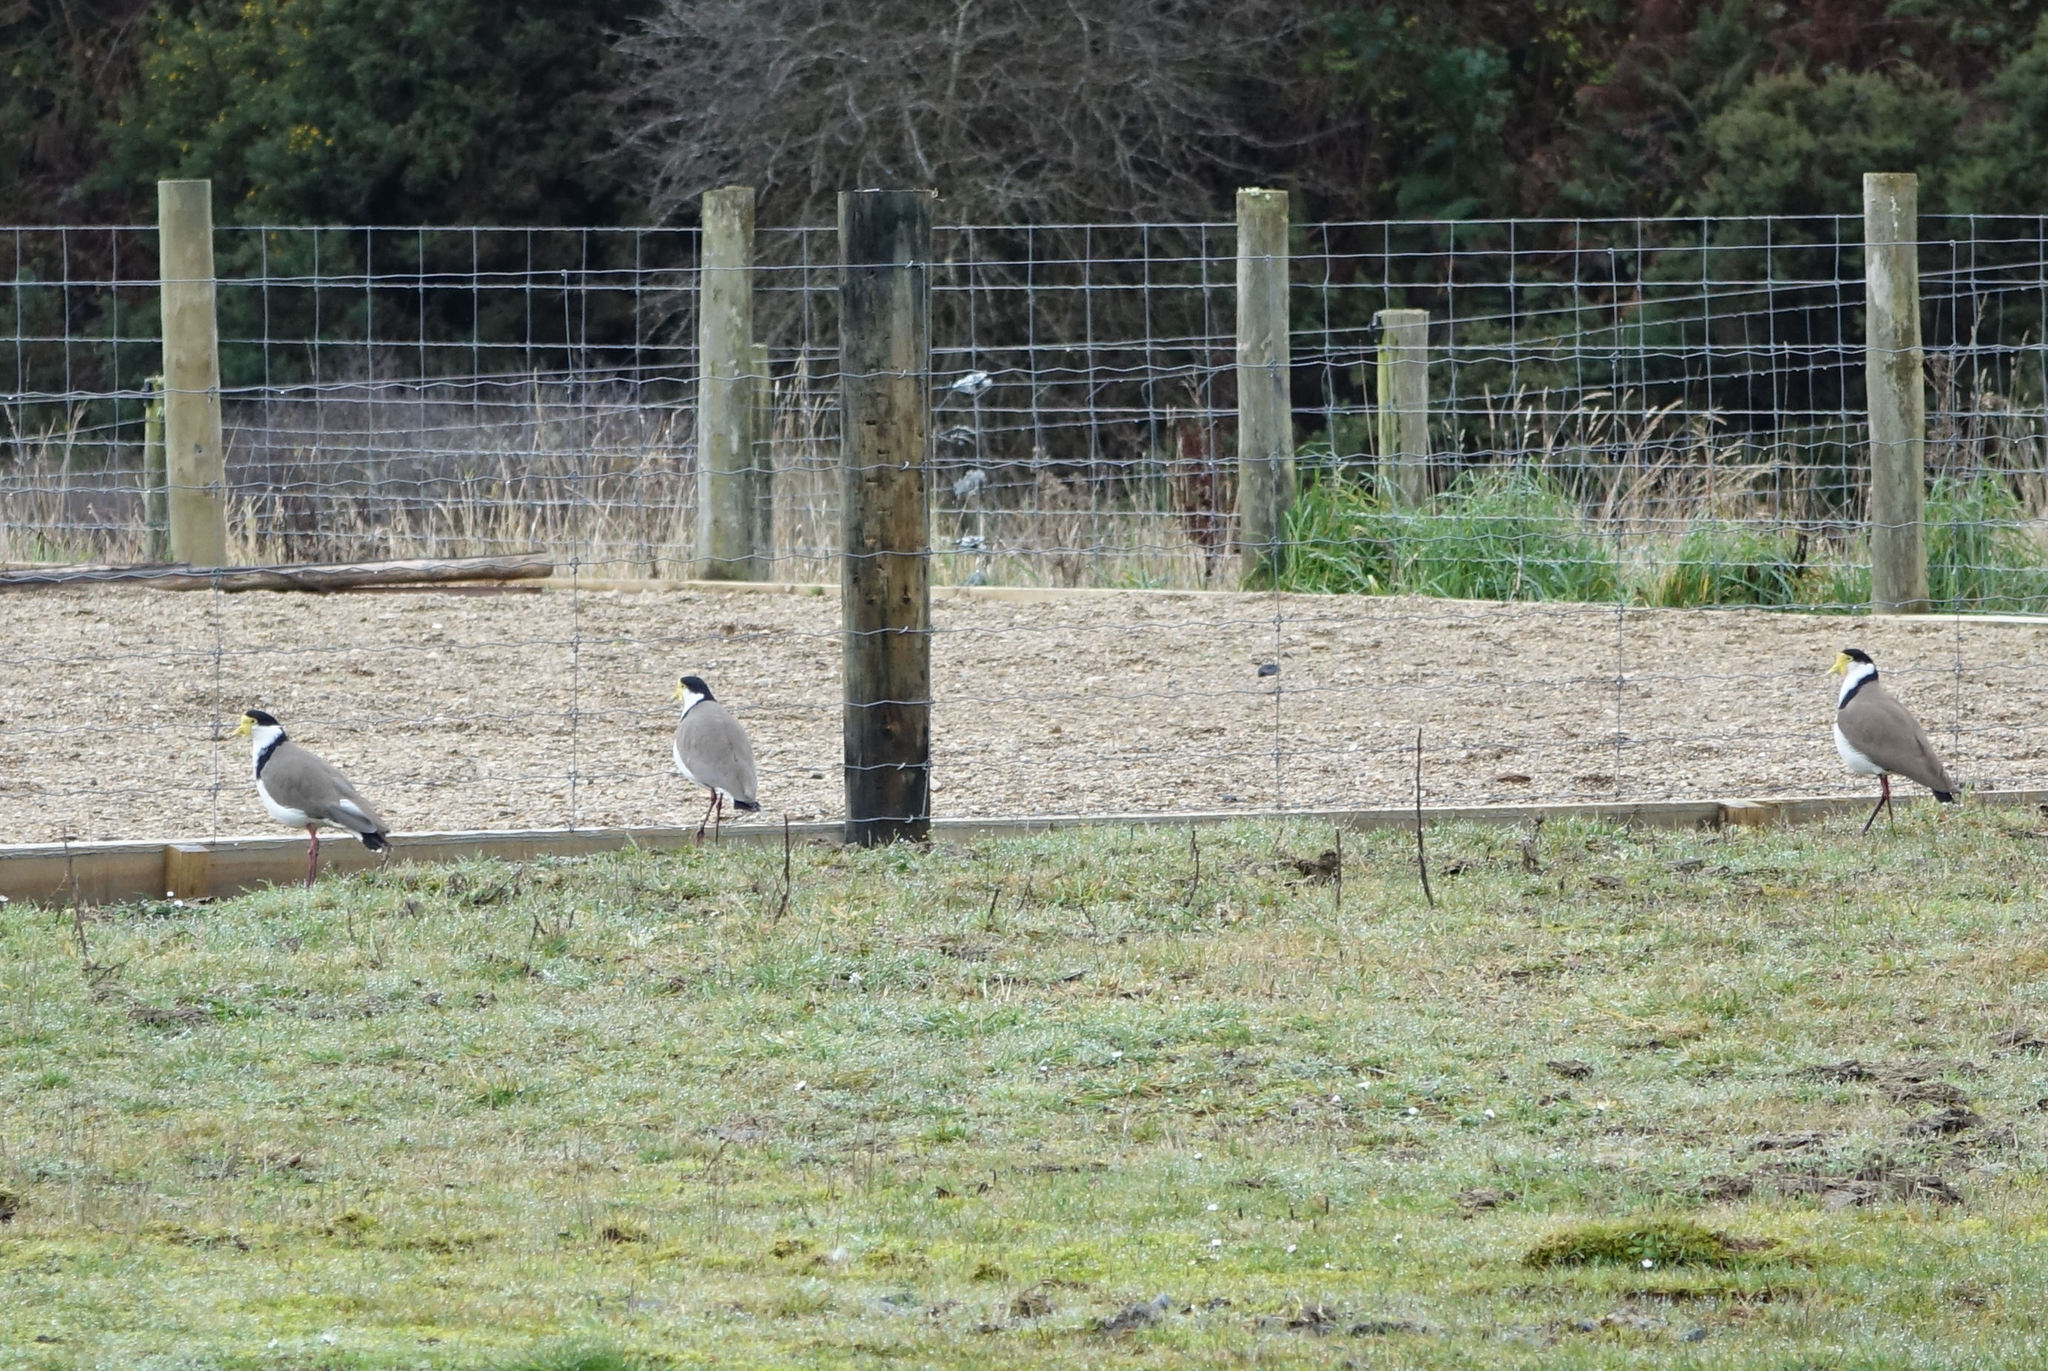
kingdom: Animalia
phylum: Chordata
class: Aves
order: Charadriiformes
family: Charadriidae
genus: Vanellus
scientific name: Vanellus miles
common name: Masked lapwing
